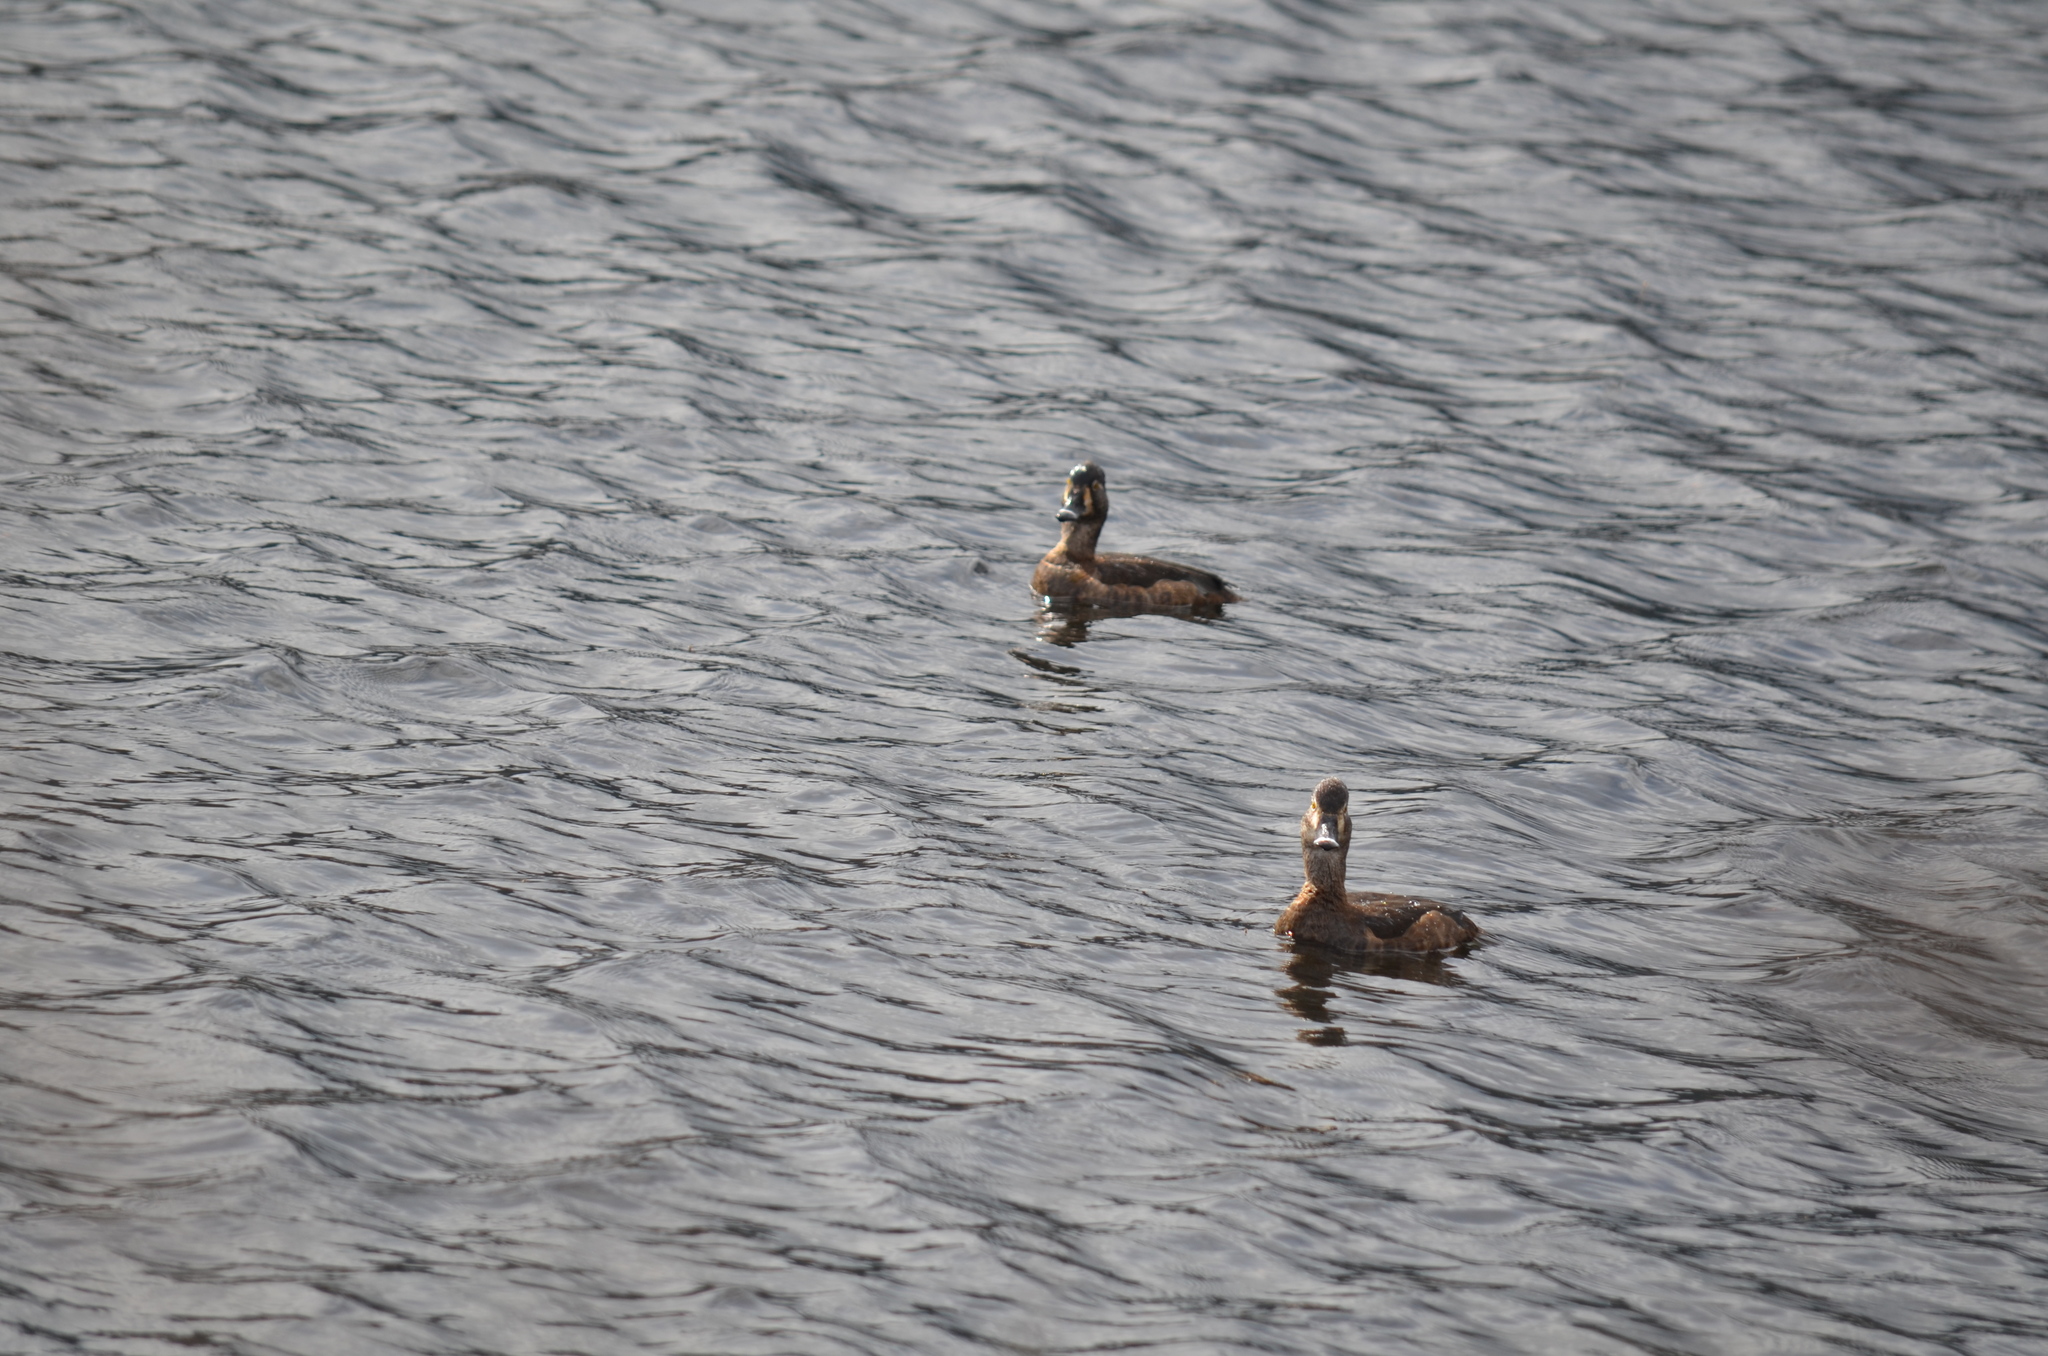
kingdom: Animalia
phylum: Chordata
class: Aves
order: Anseriformes
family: Anatidae
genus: Aythya
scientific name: Aythya collaris
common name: Ring-necked duck
